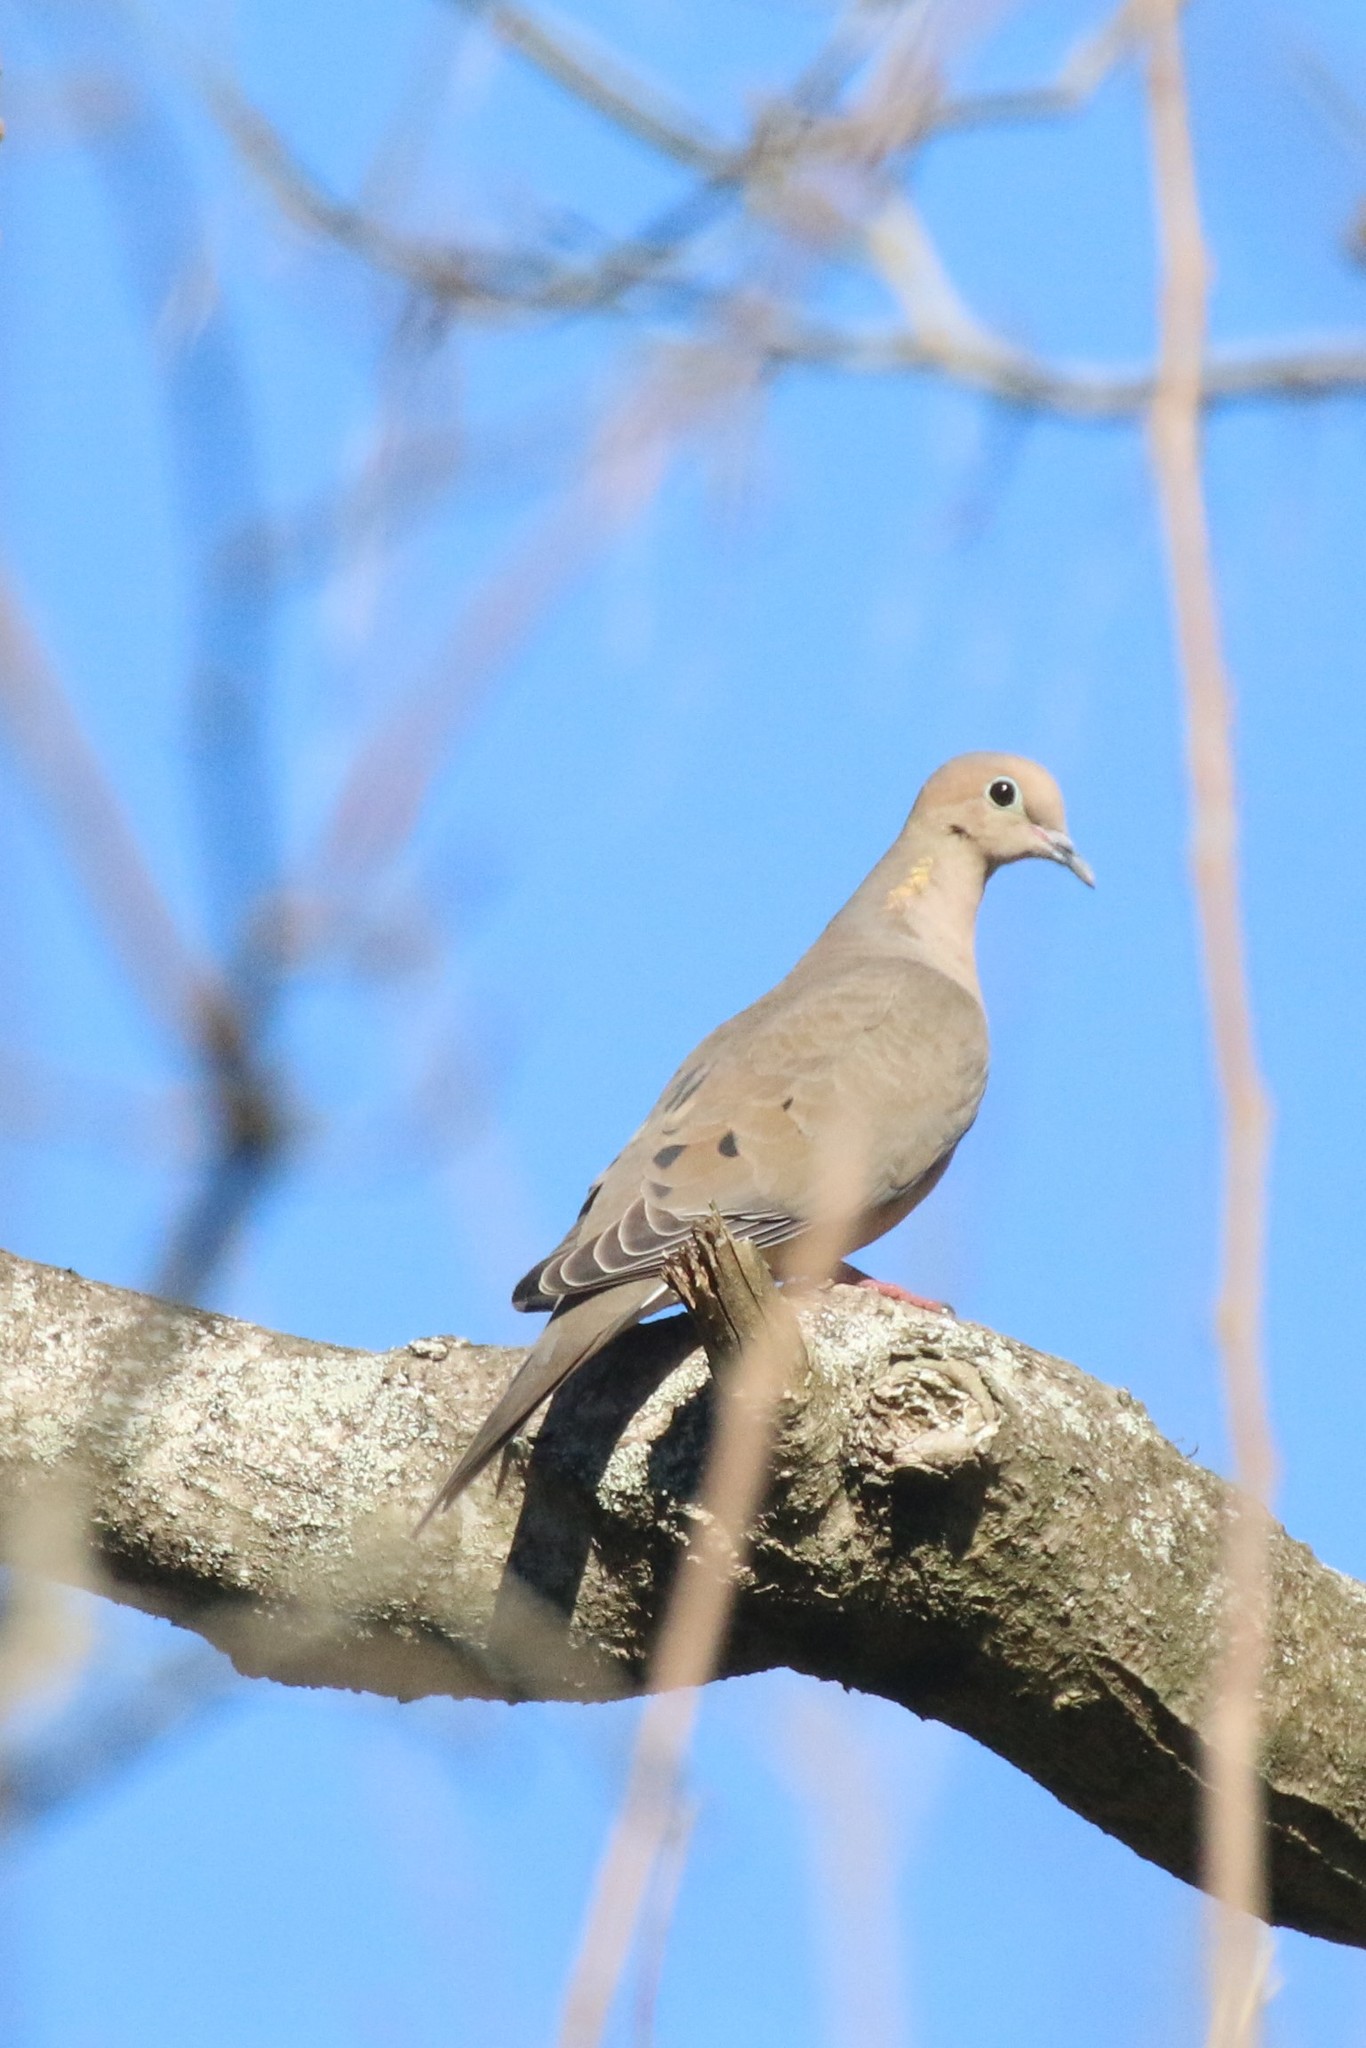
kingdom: Animalia
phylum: Chordata
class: Aves
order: Columbiformes
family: Columbidae
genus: Zenaida
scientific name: Zenaida macroura
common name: Mourning dove
